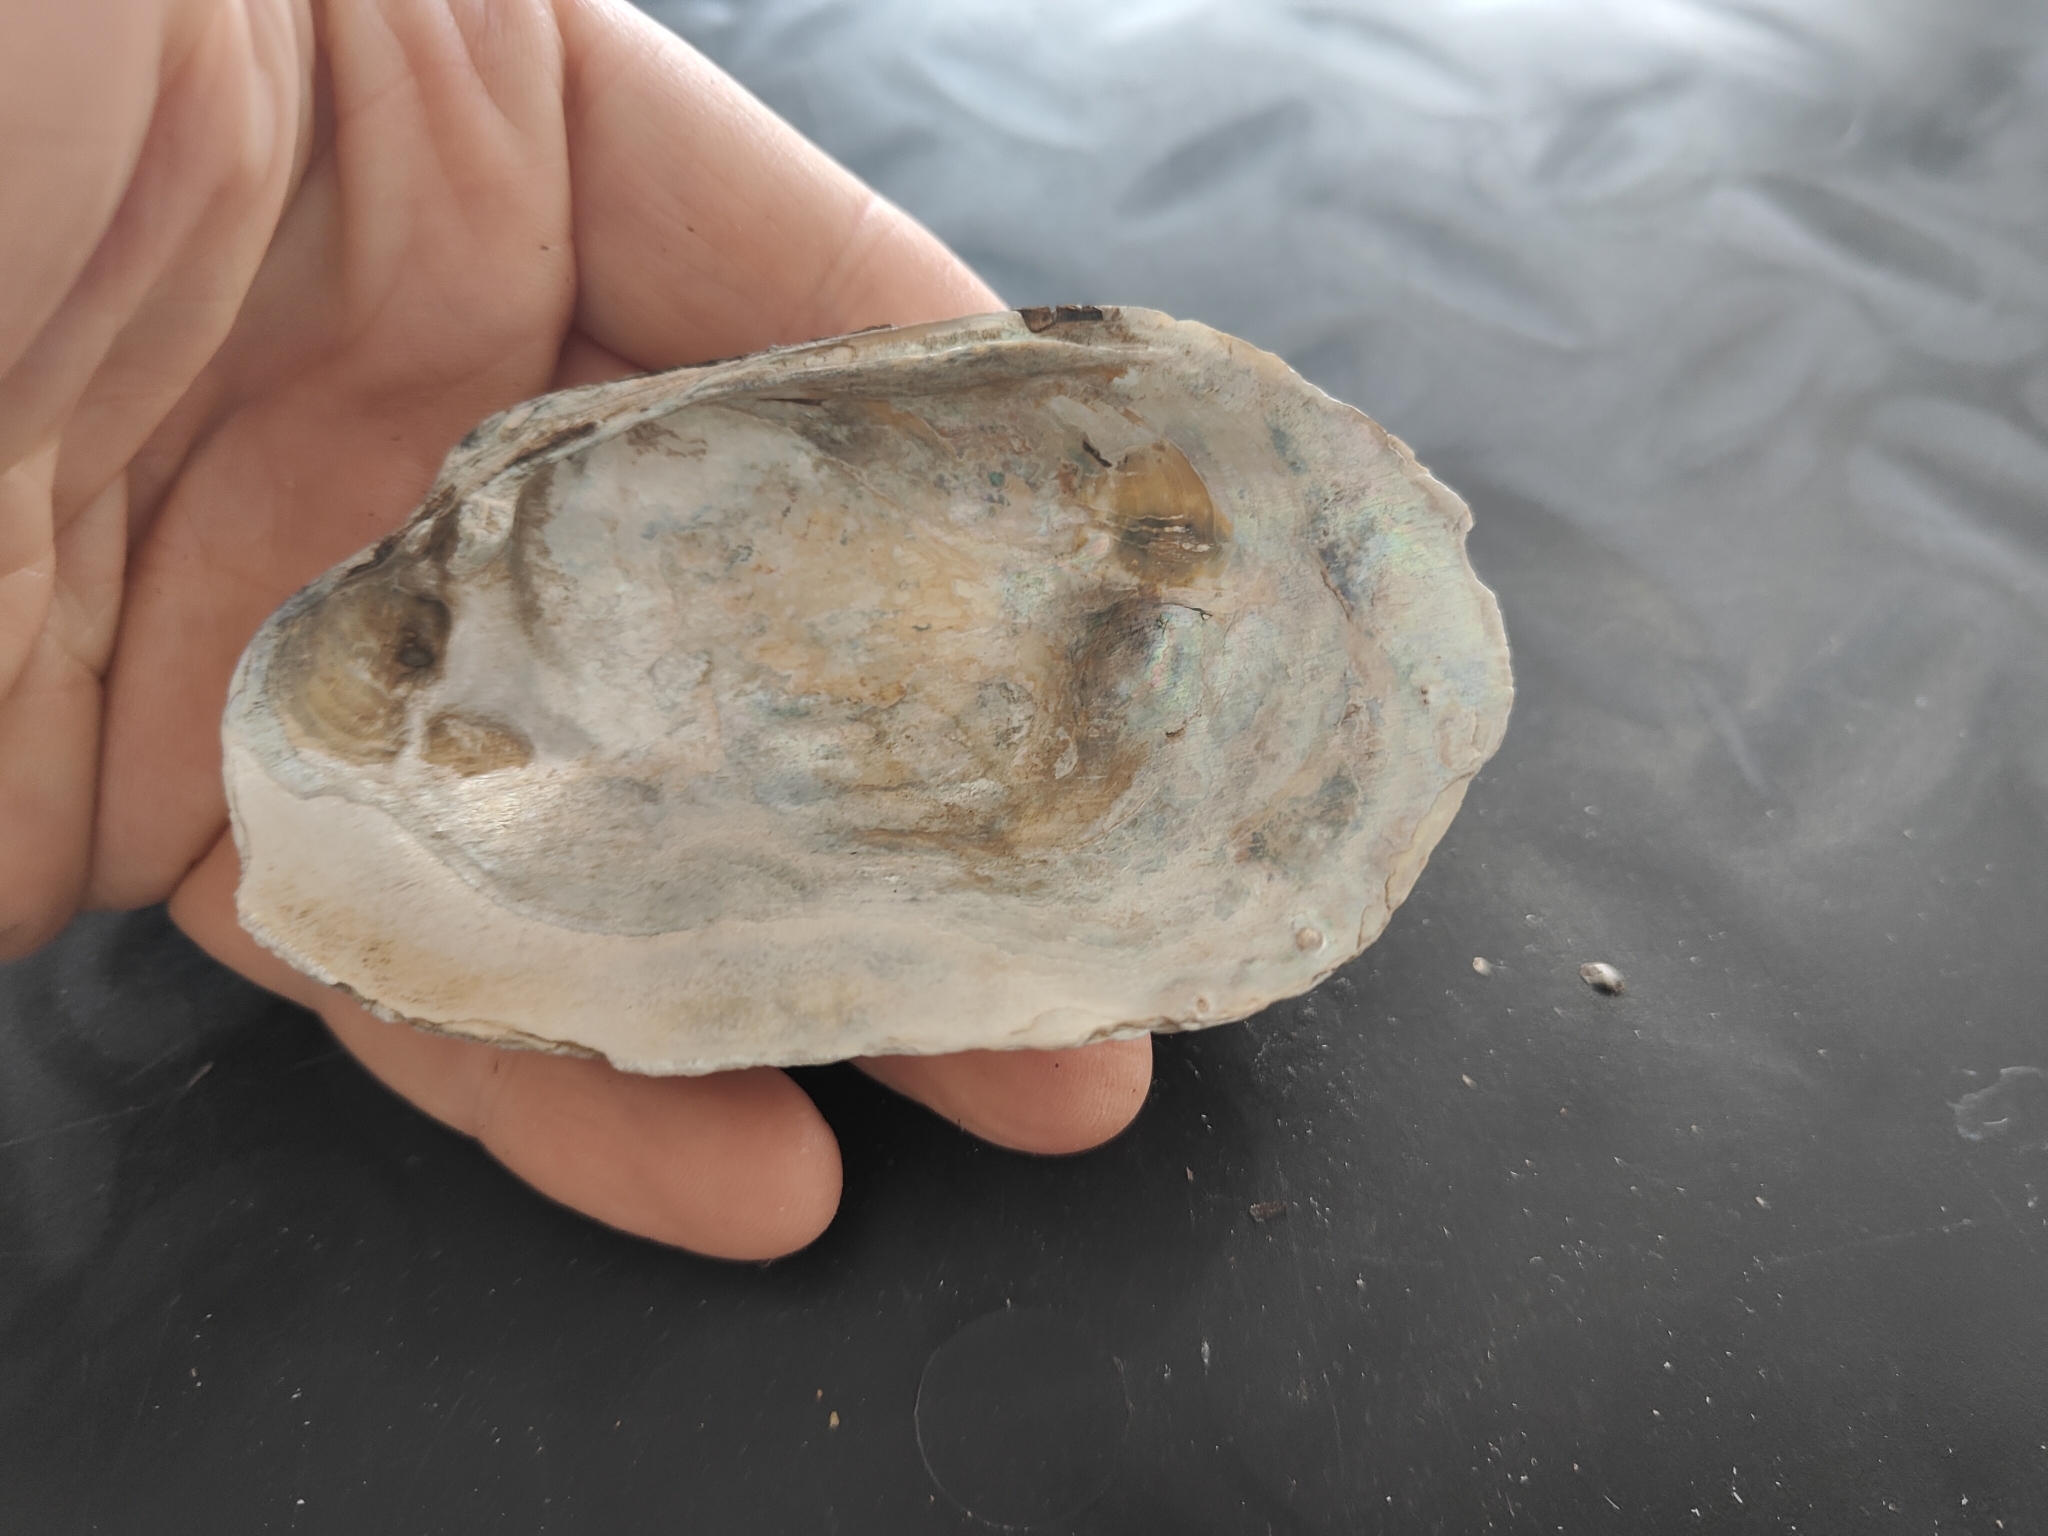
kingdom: Animalia
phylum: Mollusca
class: Bivalvia
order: Unionida
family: Unionidae
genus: Lampsilis
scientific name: Lampsilis siliquoidea
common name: Fatmucket
